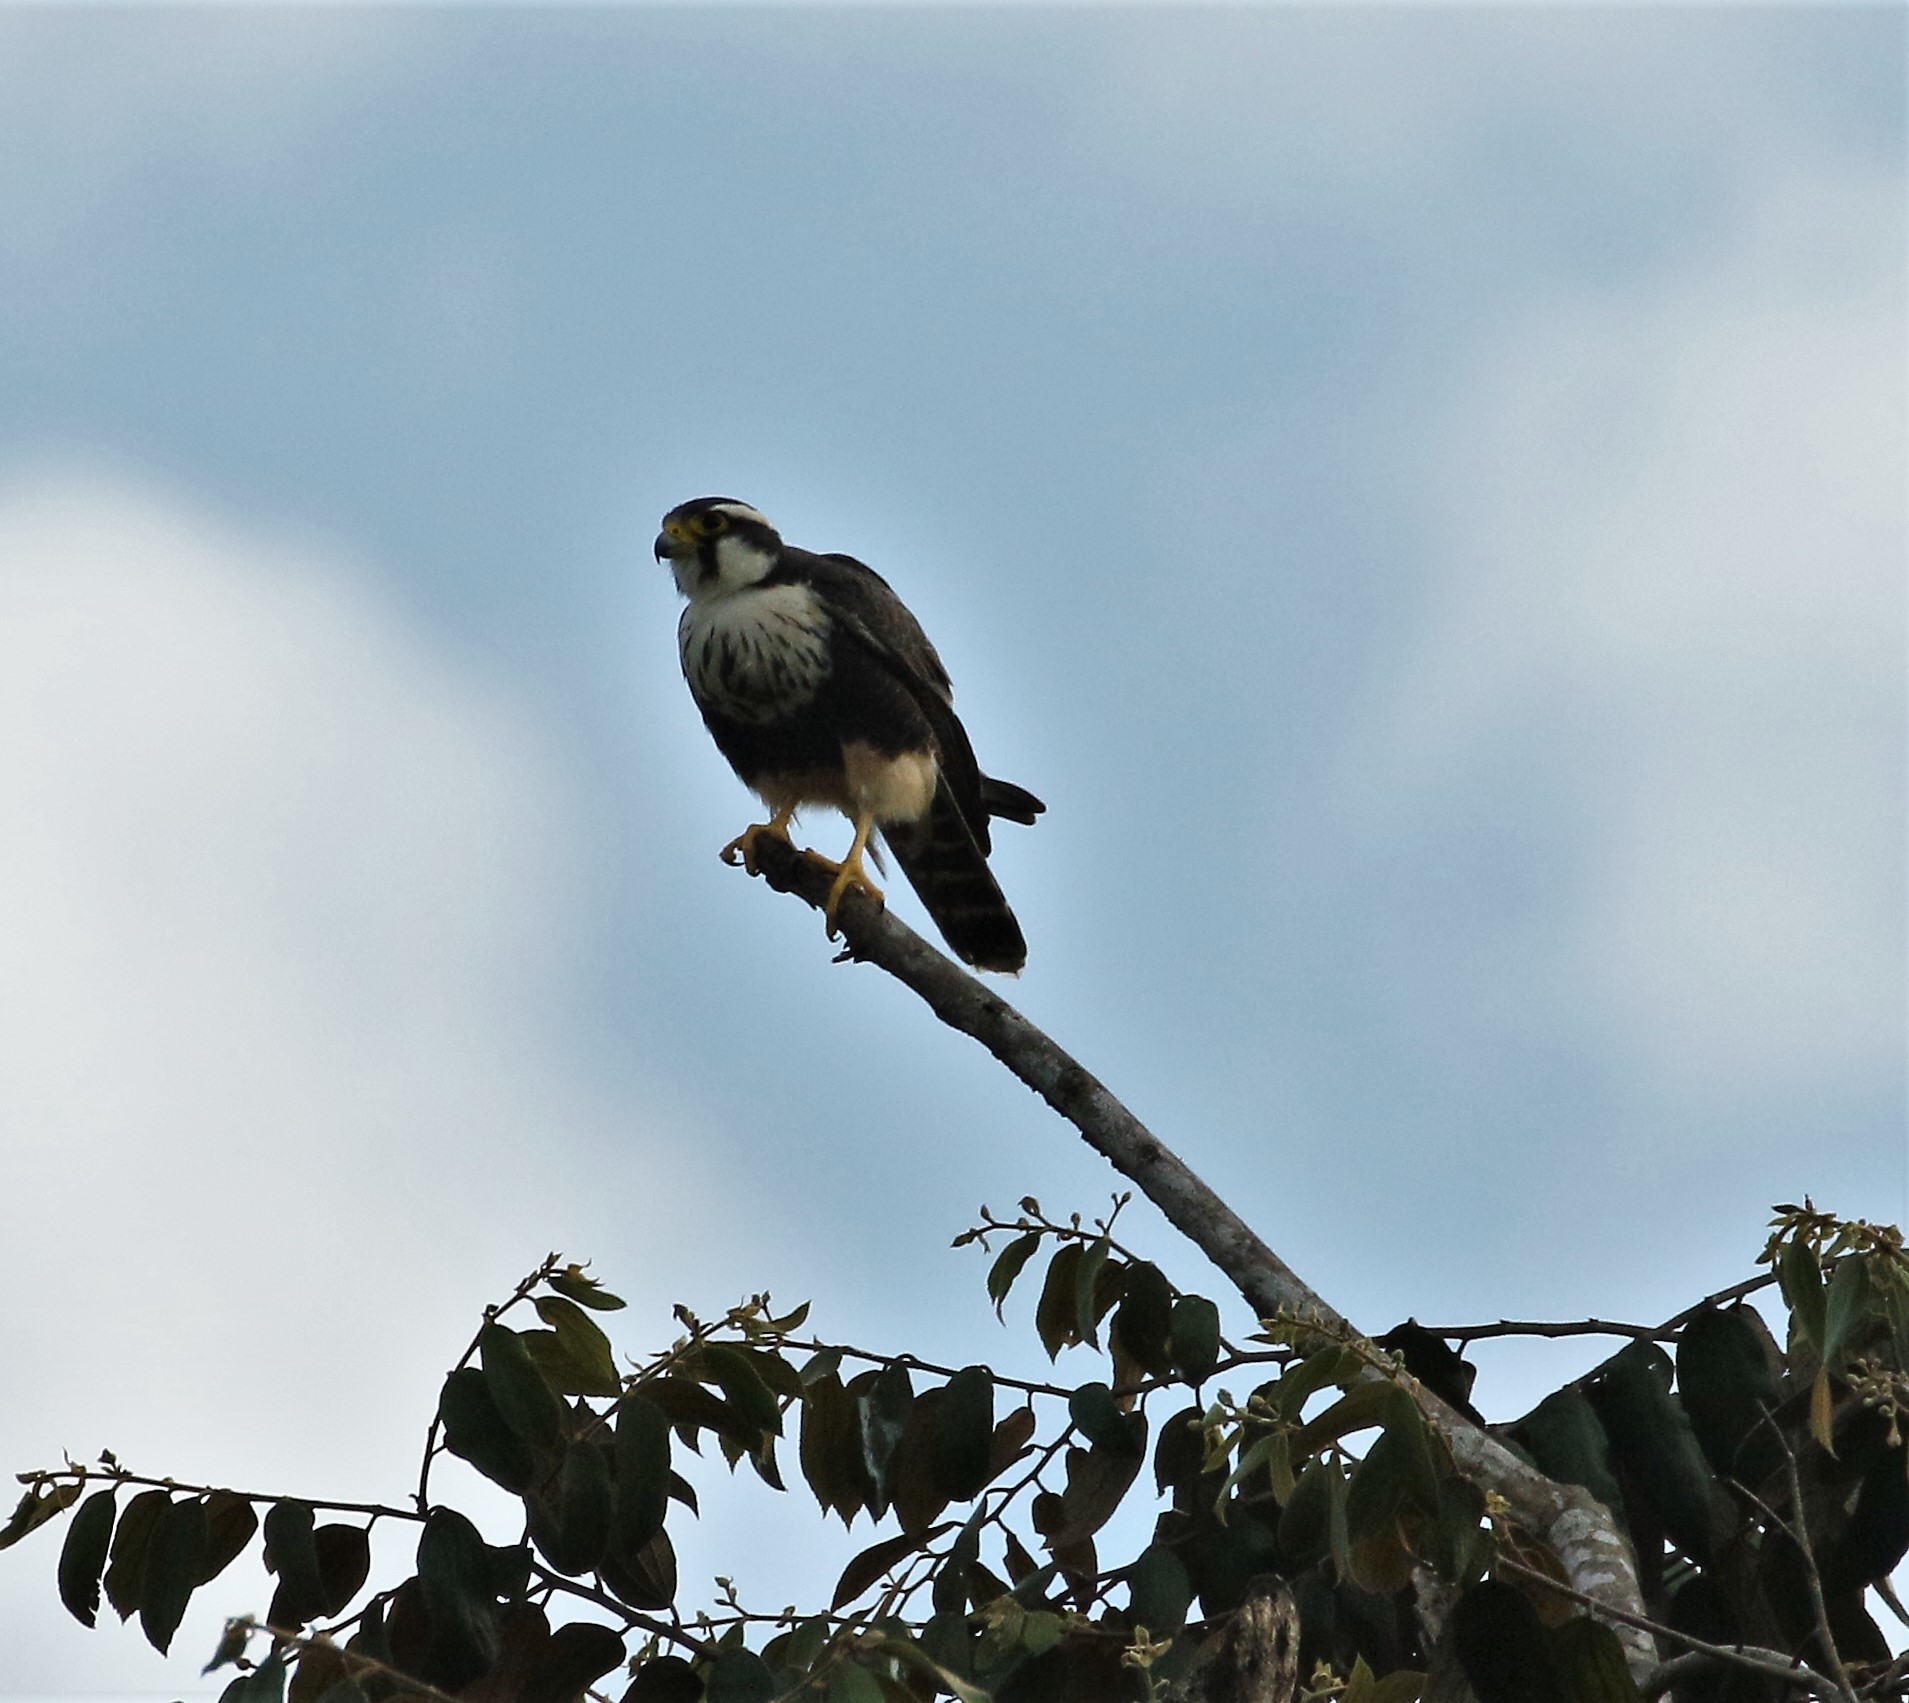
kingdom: Animalia
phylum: Chordata
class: Aves
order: Falconiformes
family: Falconidae
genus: Falco
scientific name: Falco femoralis
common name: Aplomado falcon
